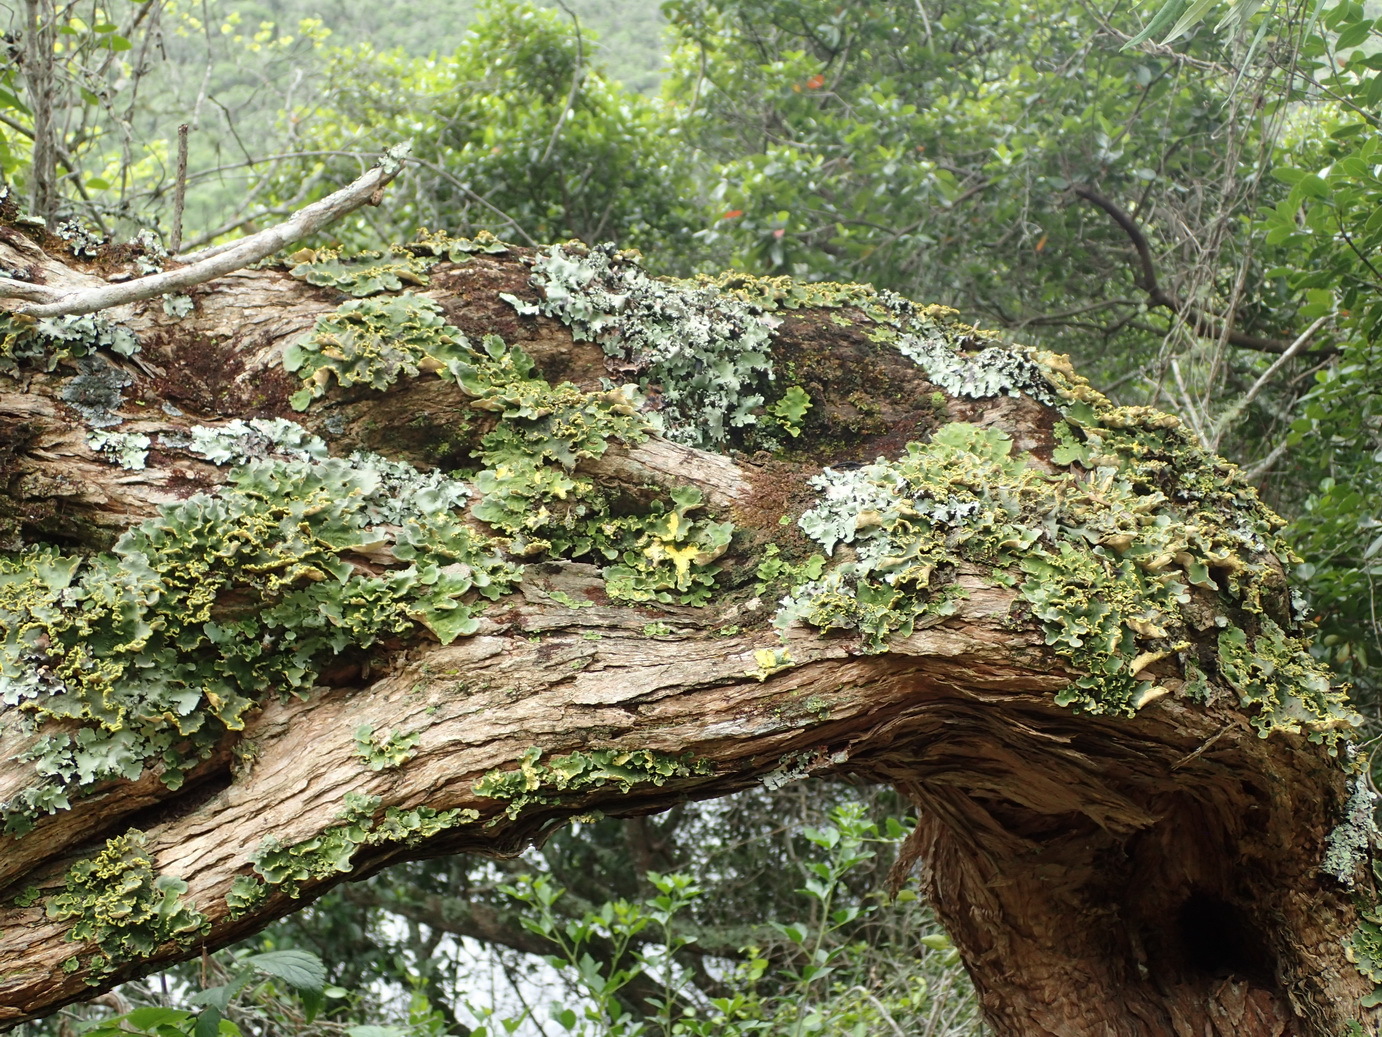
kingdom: Fungi
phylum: Ascomycota
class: Lecanoromycetes
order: Peltigerales
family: Lobariaceae
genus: Pseudocyphellaria
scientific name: Pseudocyphellaria aurata
